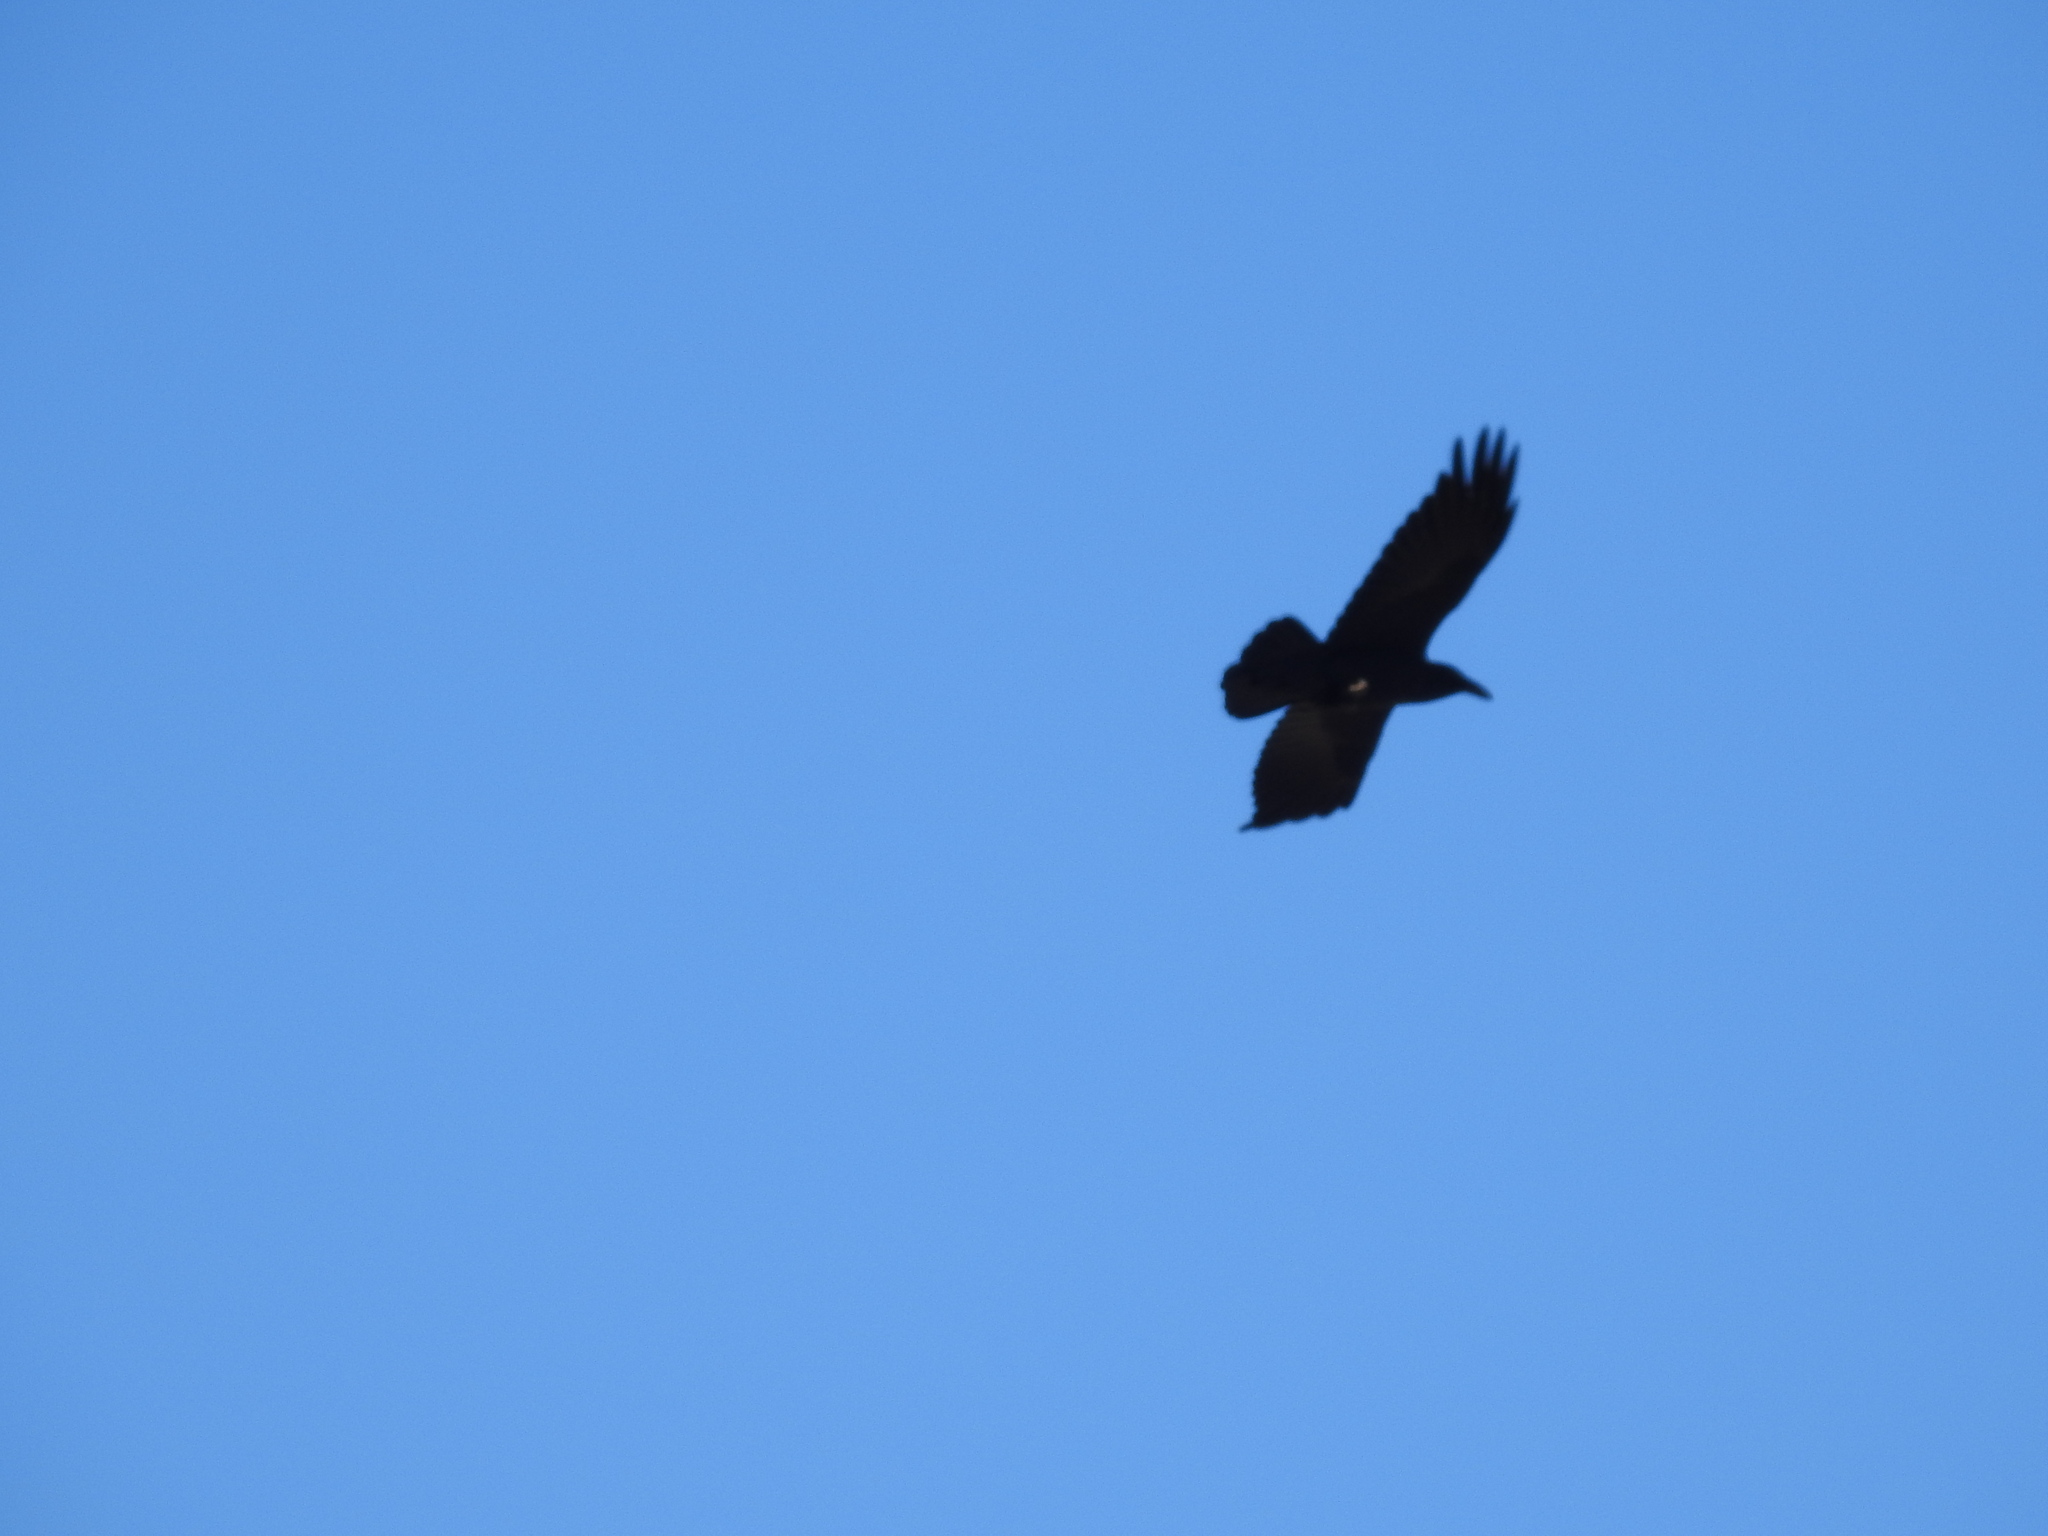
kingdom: Animalia
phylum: Chordata
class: Aves
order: Passeriformes
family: Corvidae
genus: Corvus
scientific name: Corvus corax
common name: Common raven
